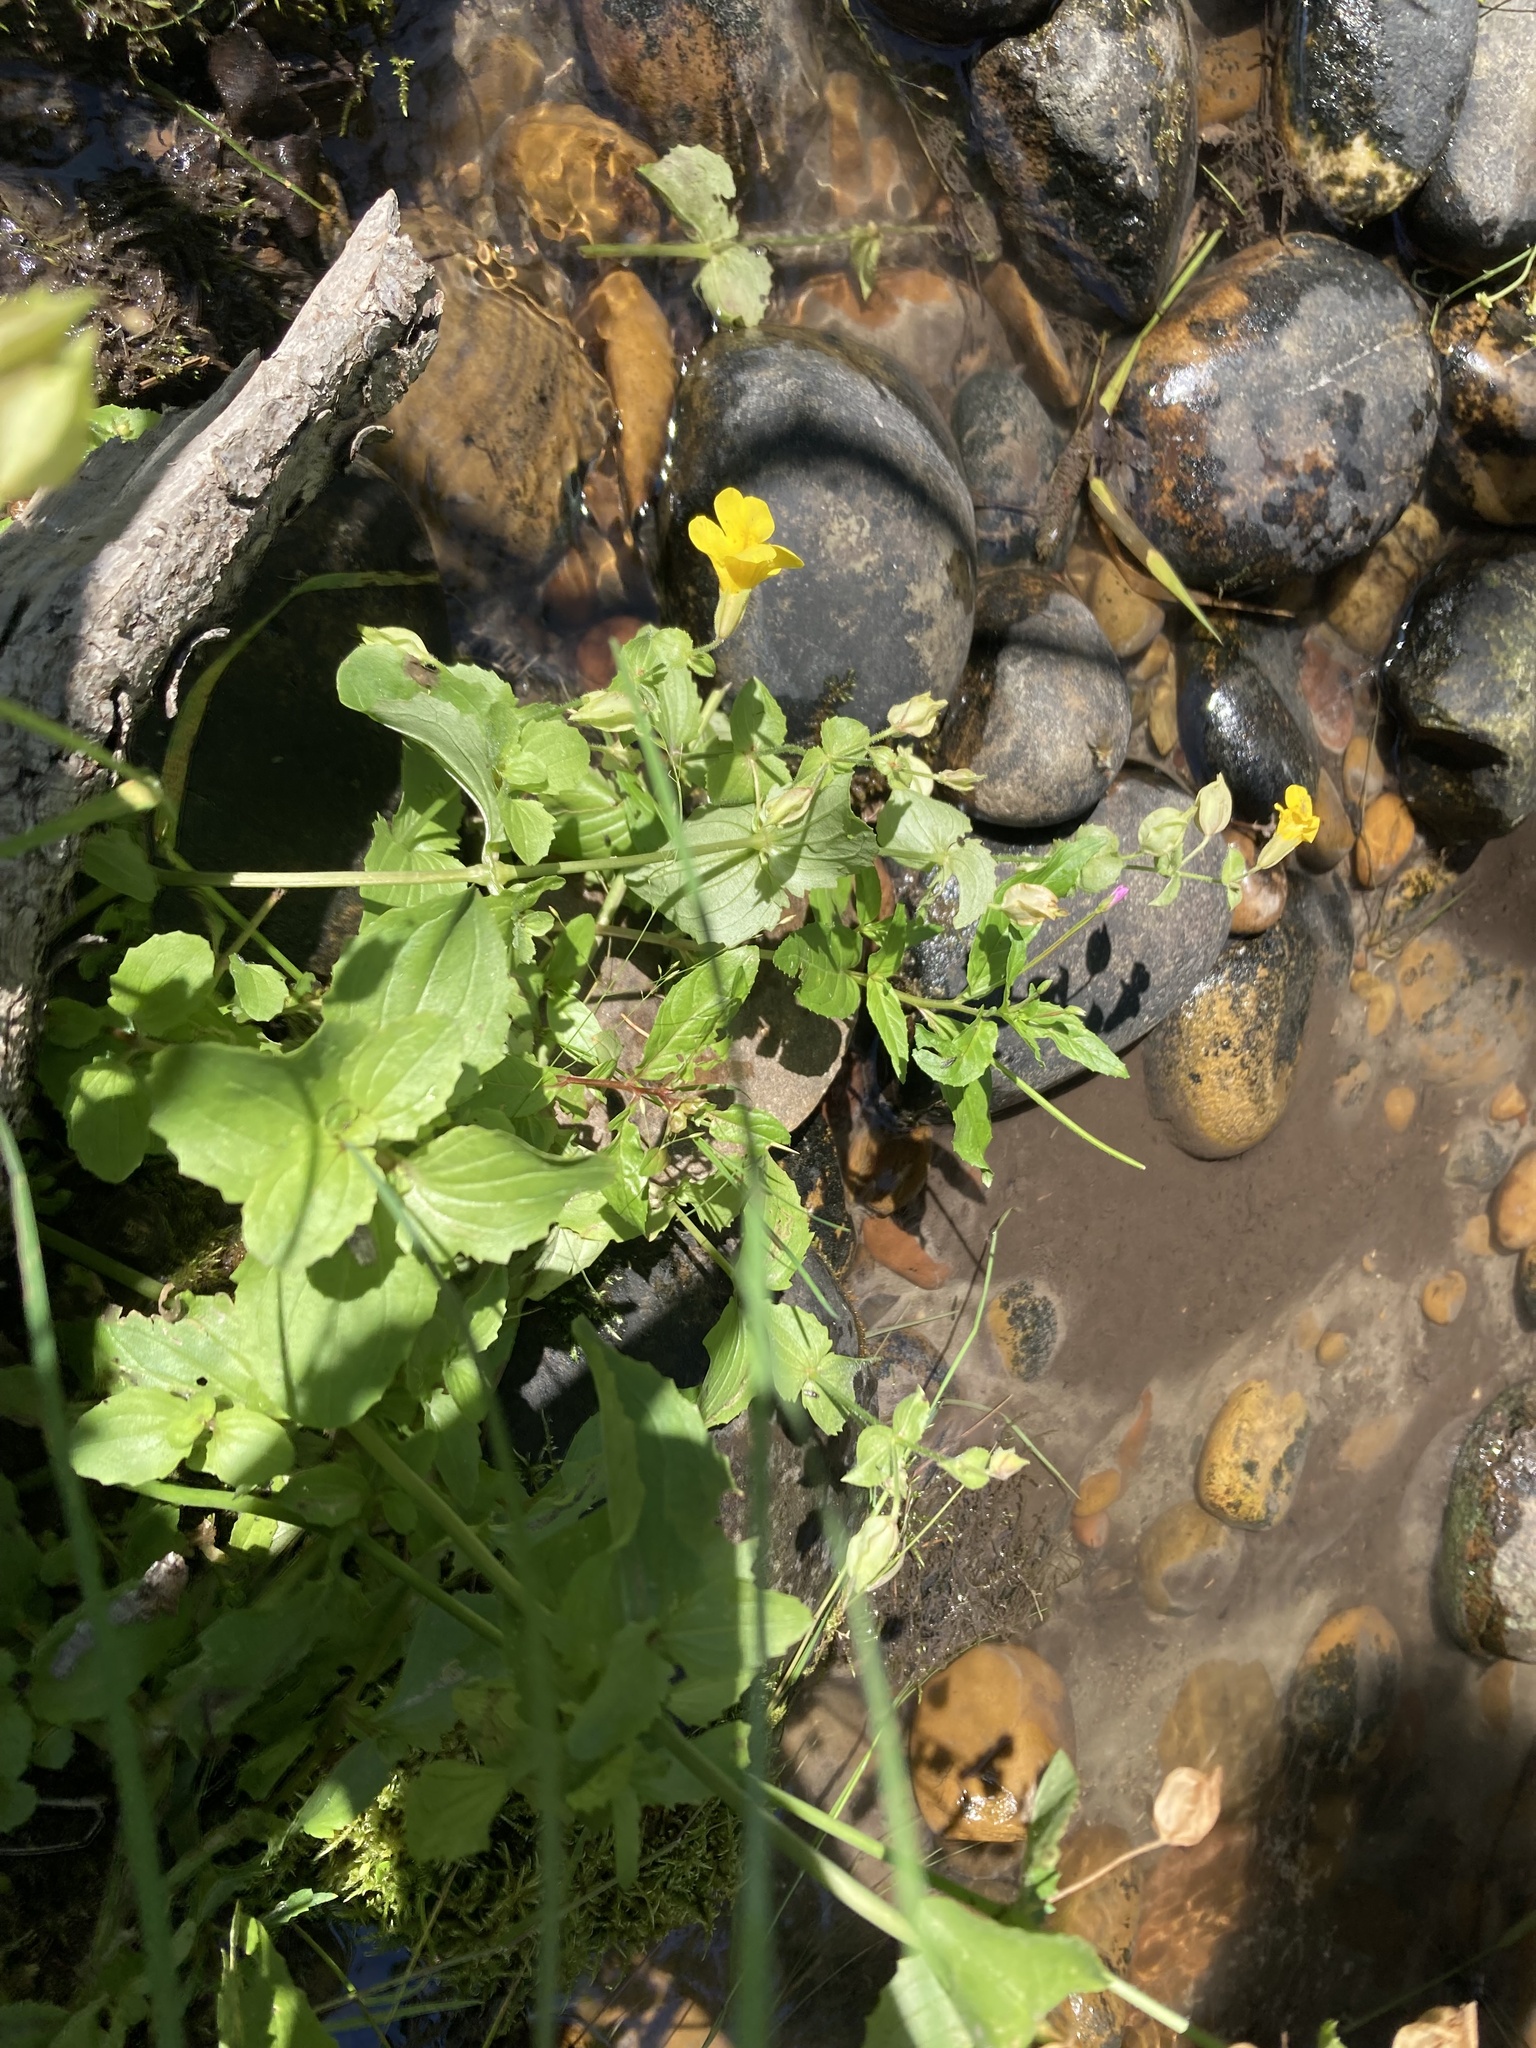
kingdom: Plantae
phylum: Tracheophyta
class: Magnoliopsida
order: Lamiales
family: Phrymaceae
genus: Erythranthe
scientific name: Erythranthe guttata
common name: Monkeyflower
